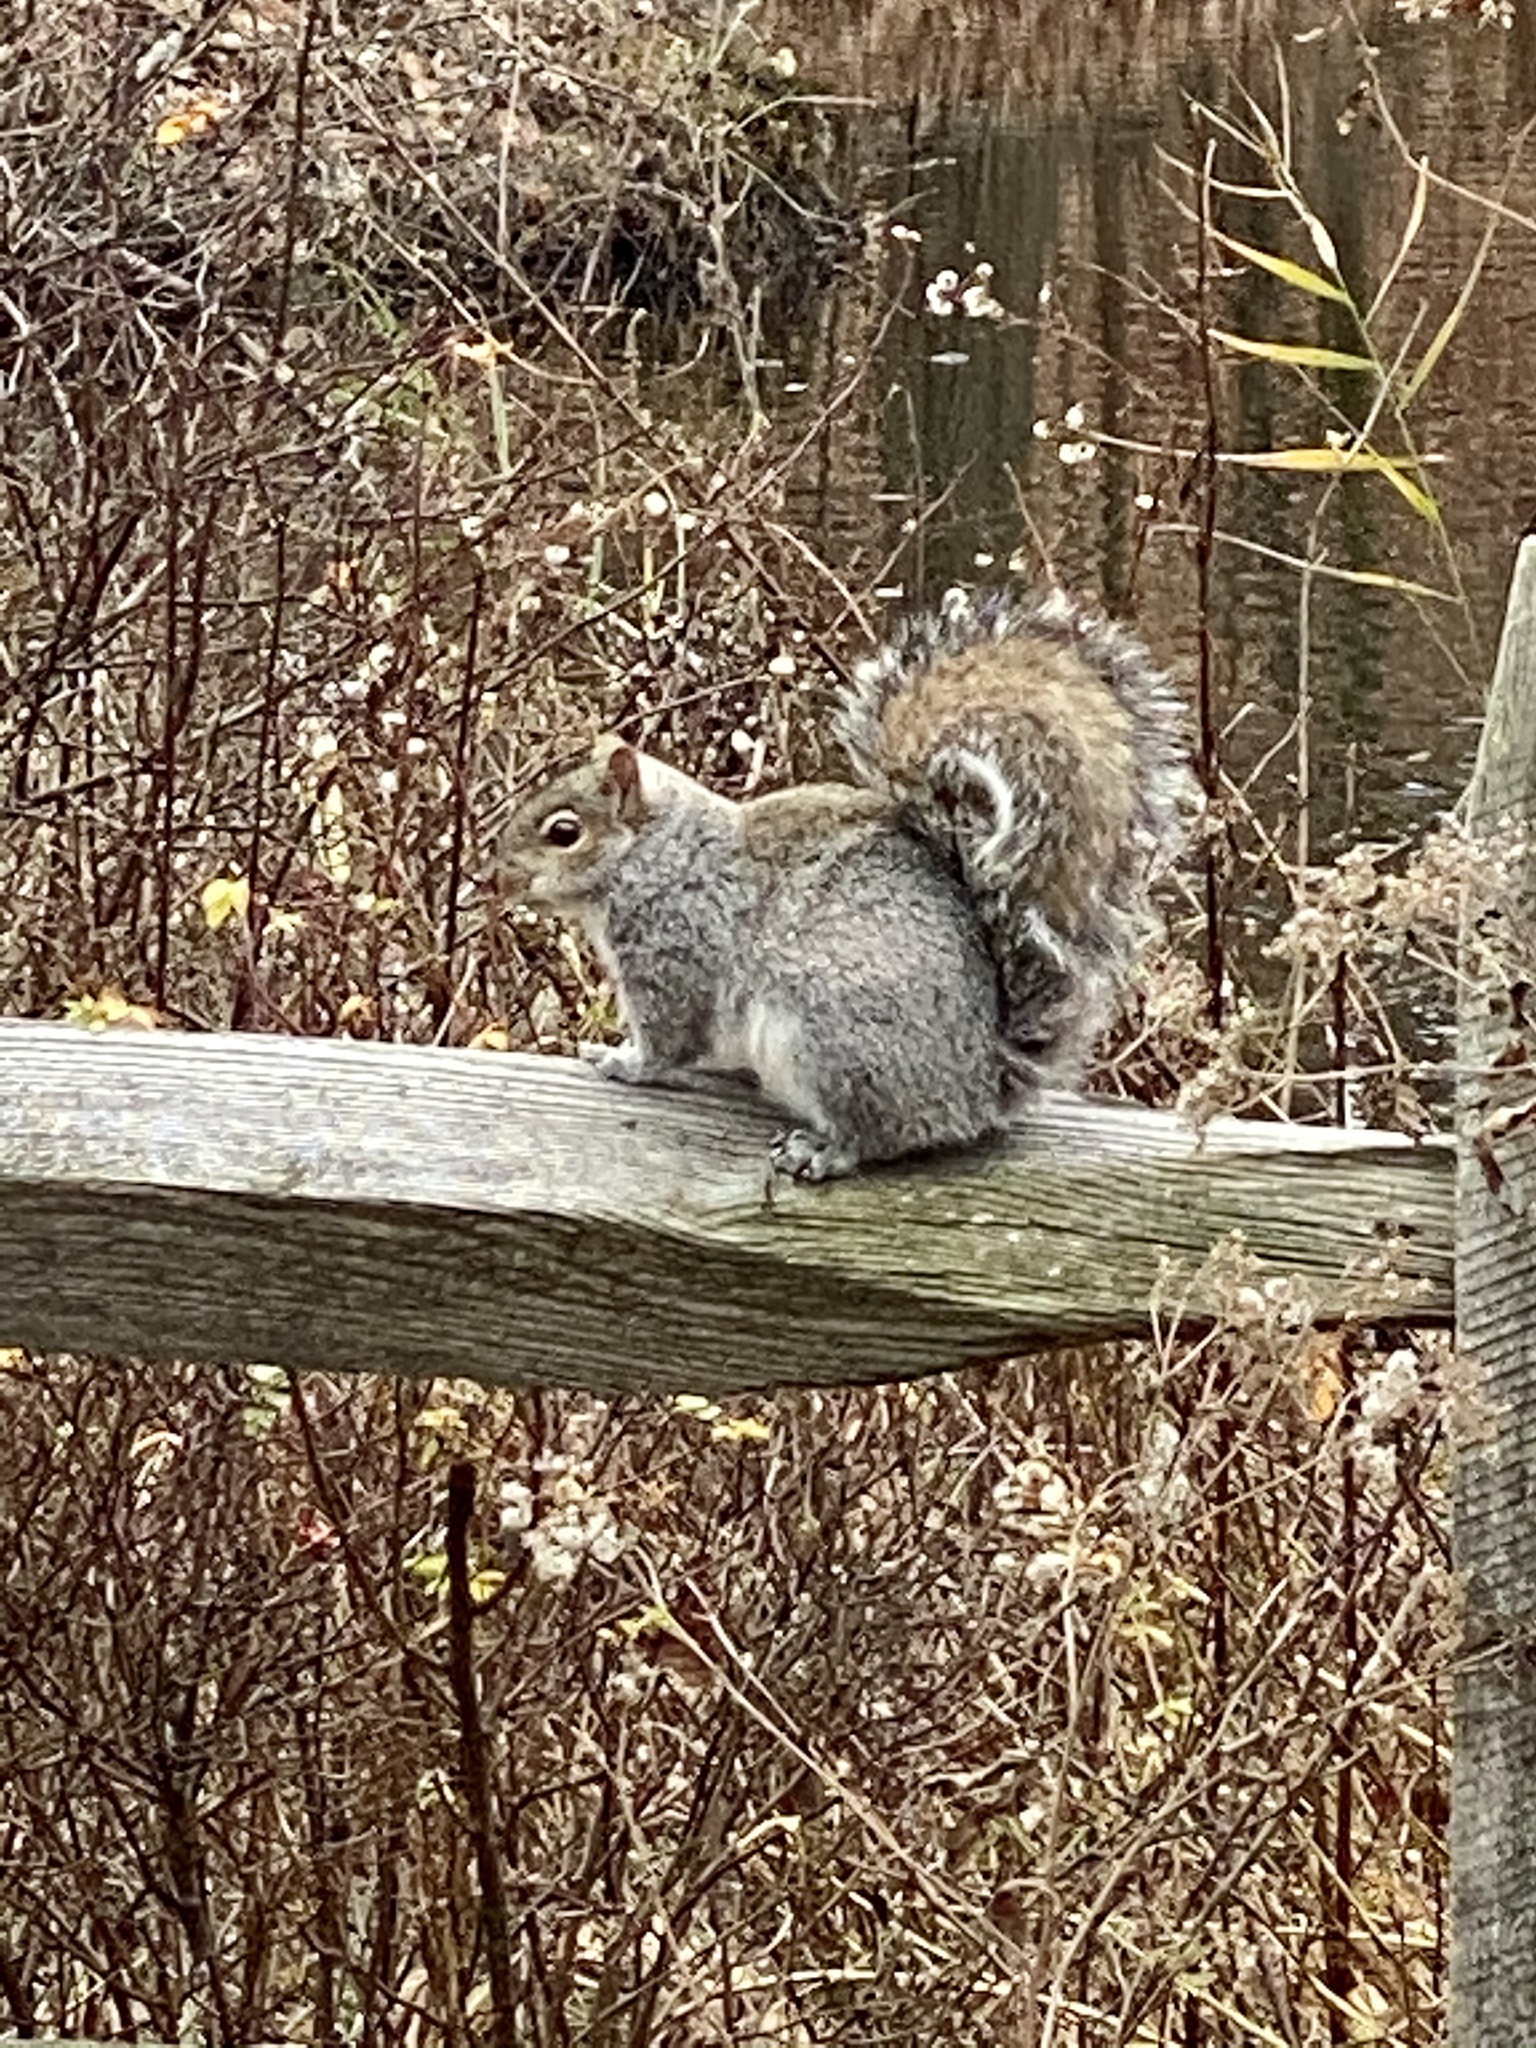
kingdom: Animalia
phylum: Chordata
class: Mammalia
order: Rodentia
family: Sciuridae
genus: Sciurus
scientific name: Sciurus carolinensis
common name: Eastern gray squirrel
